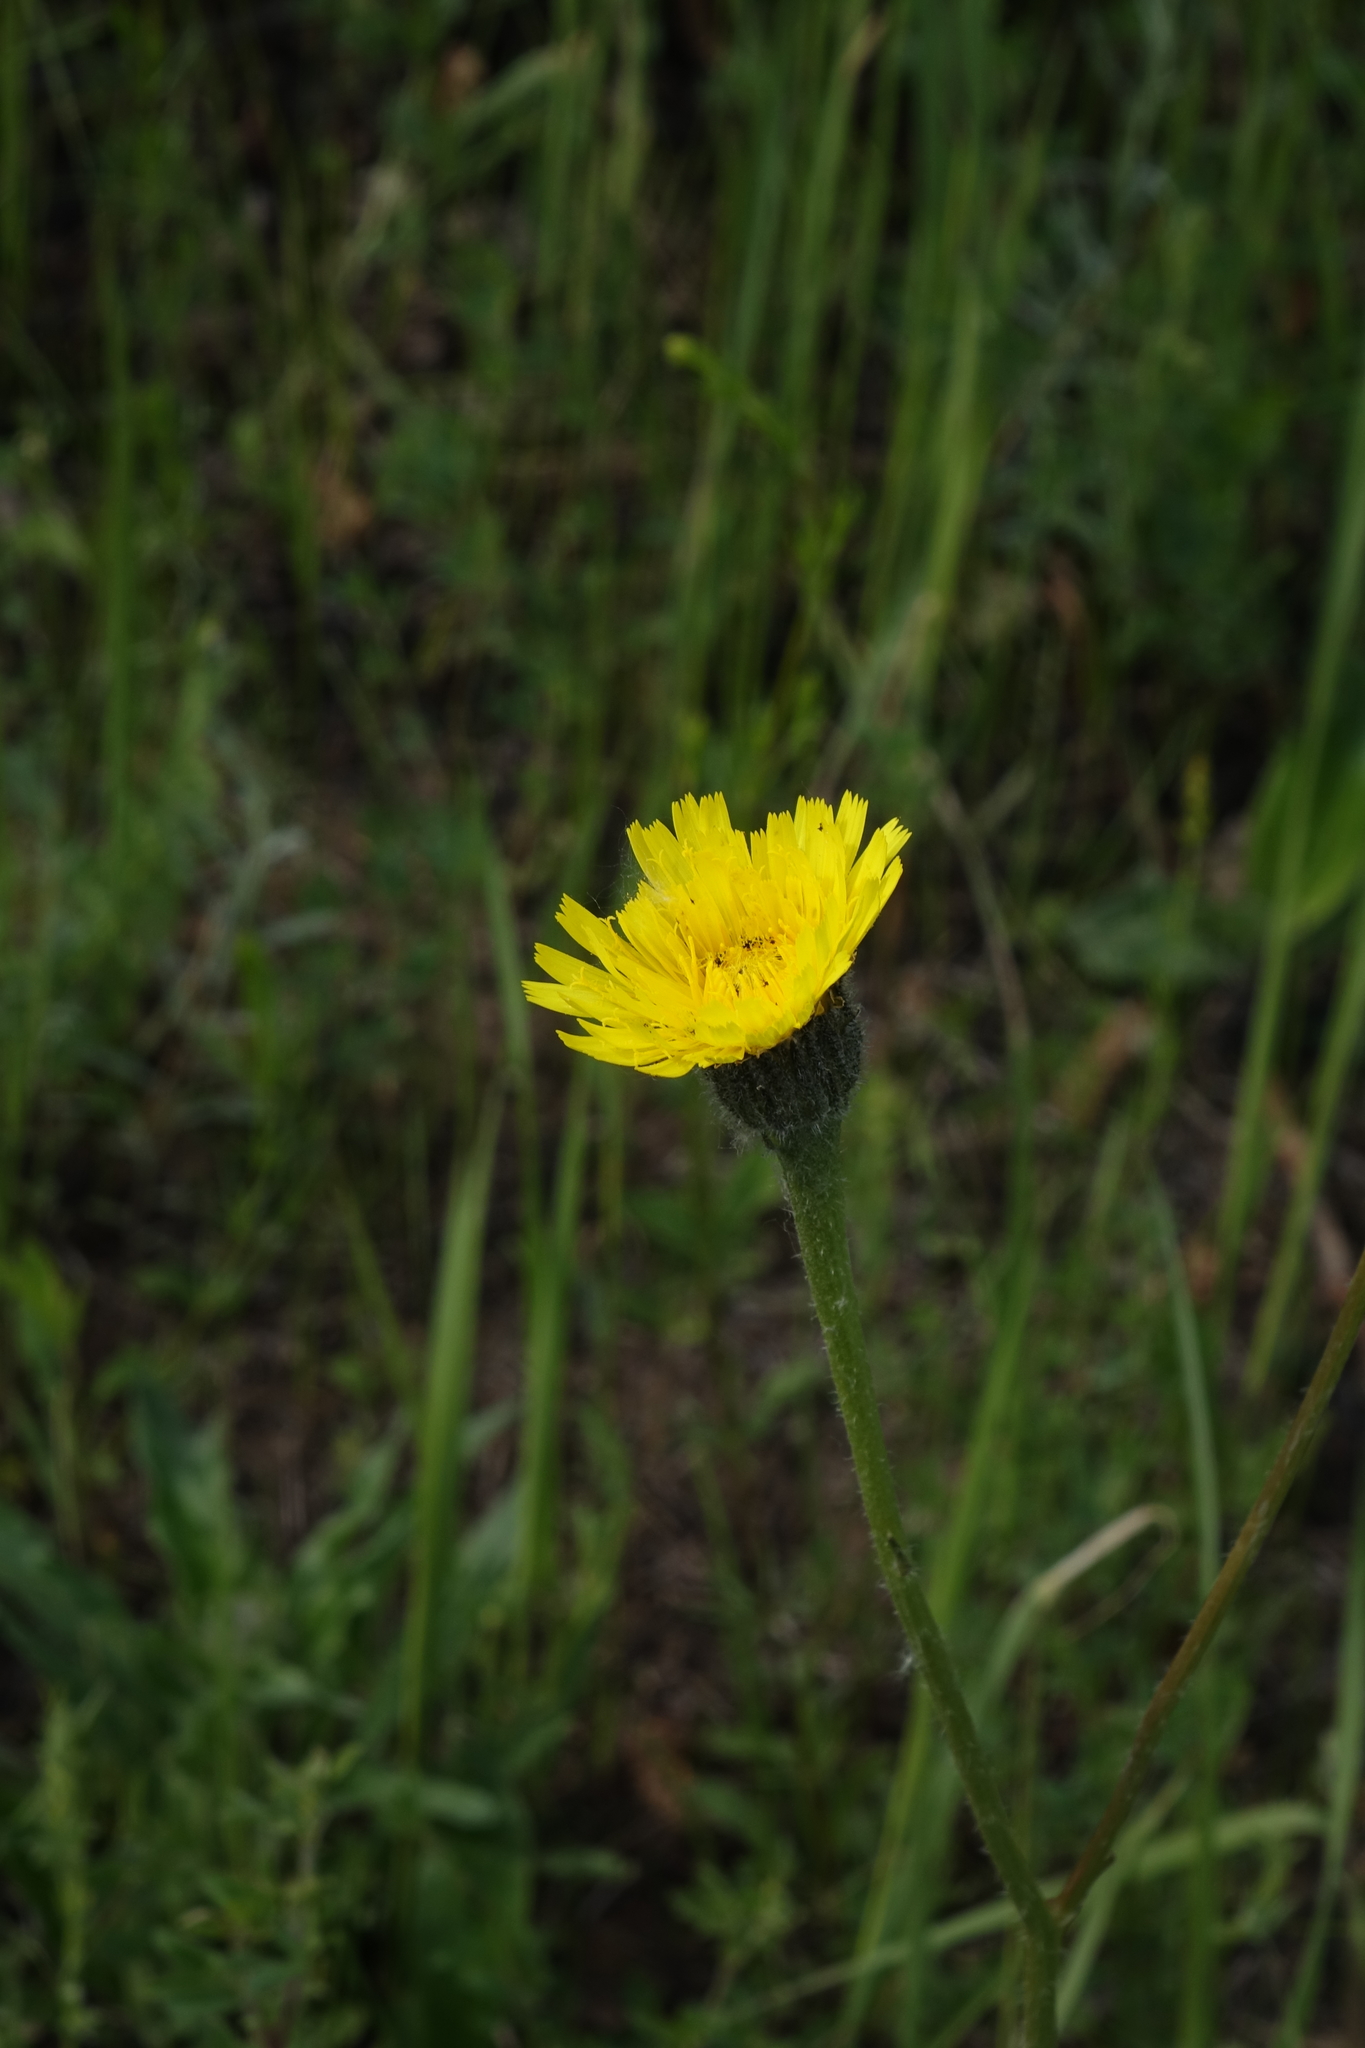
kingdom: Plantae
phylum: Tracheophyta
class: Magnoliopsida
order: Asterales
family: Asteraceae
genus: Trommsdorffia
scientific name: Trommsdorffia maculata
